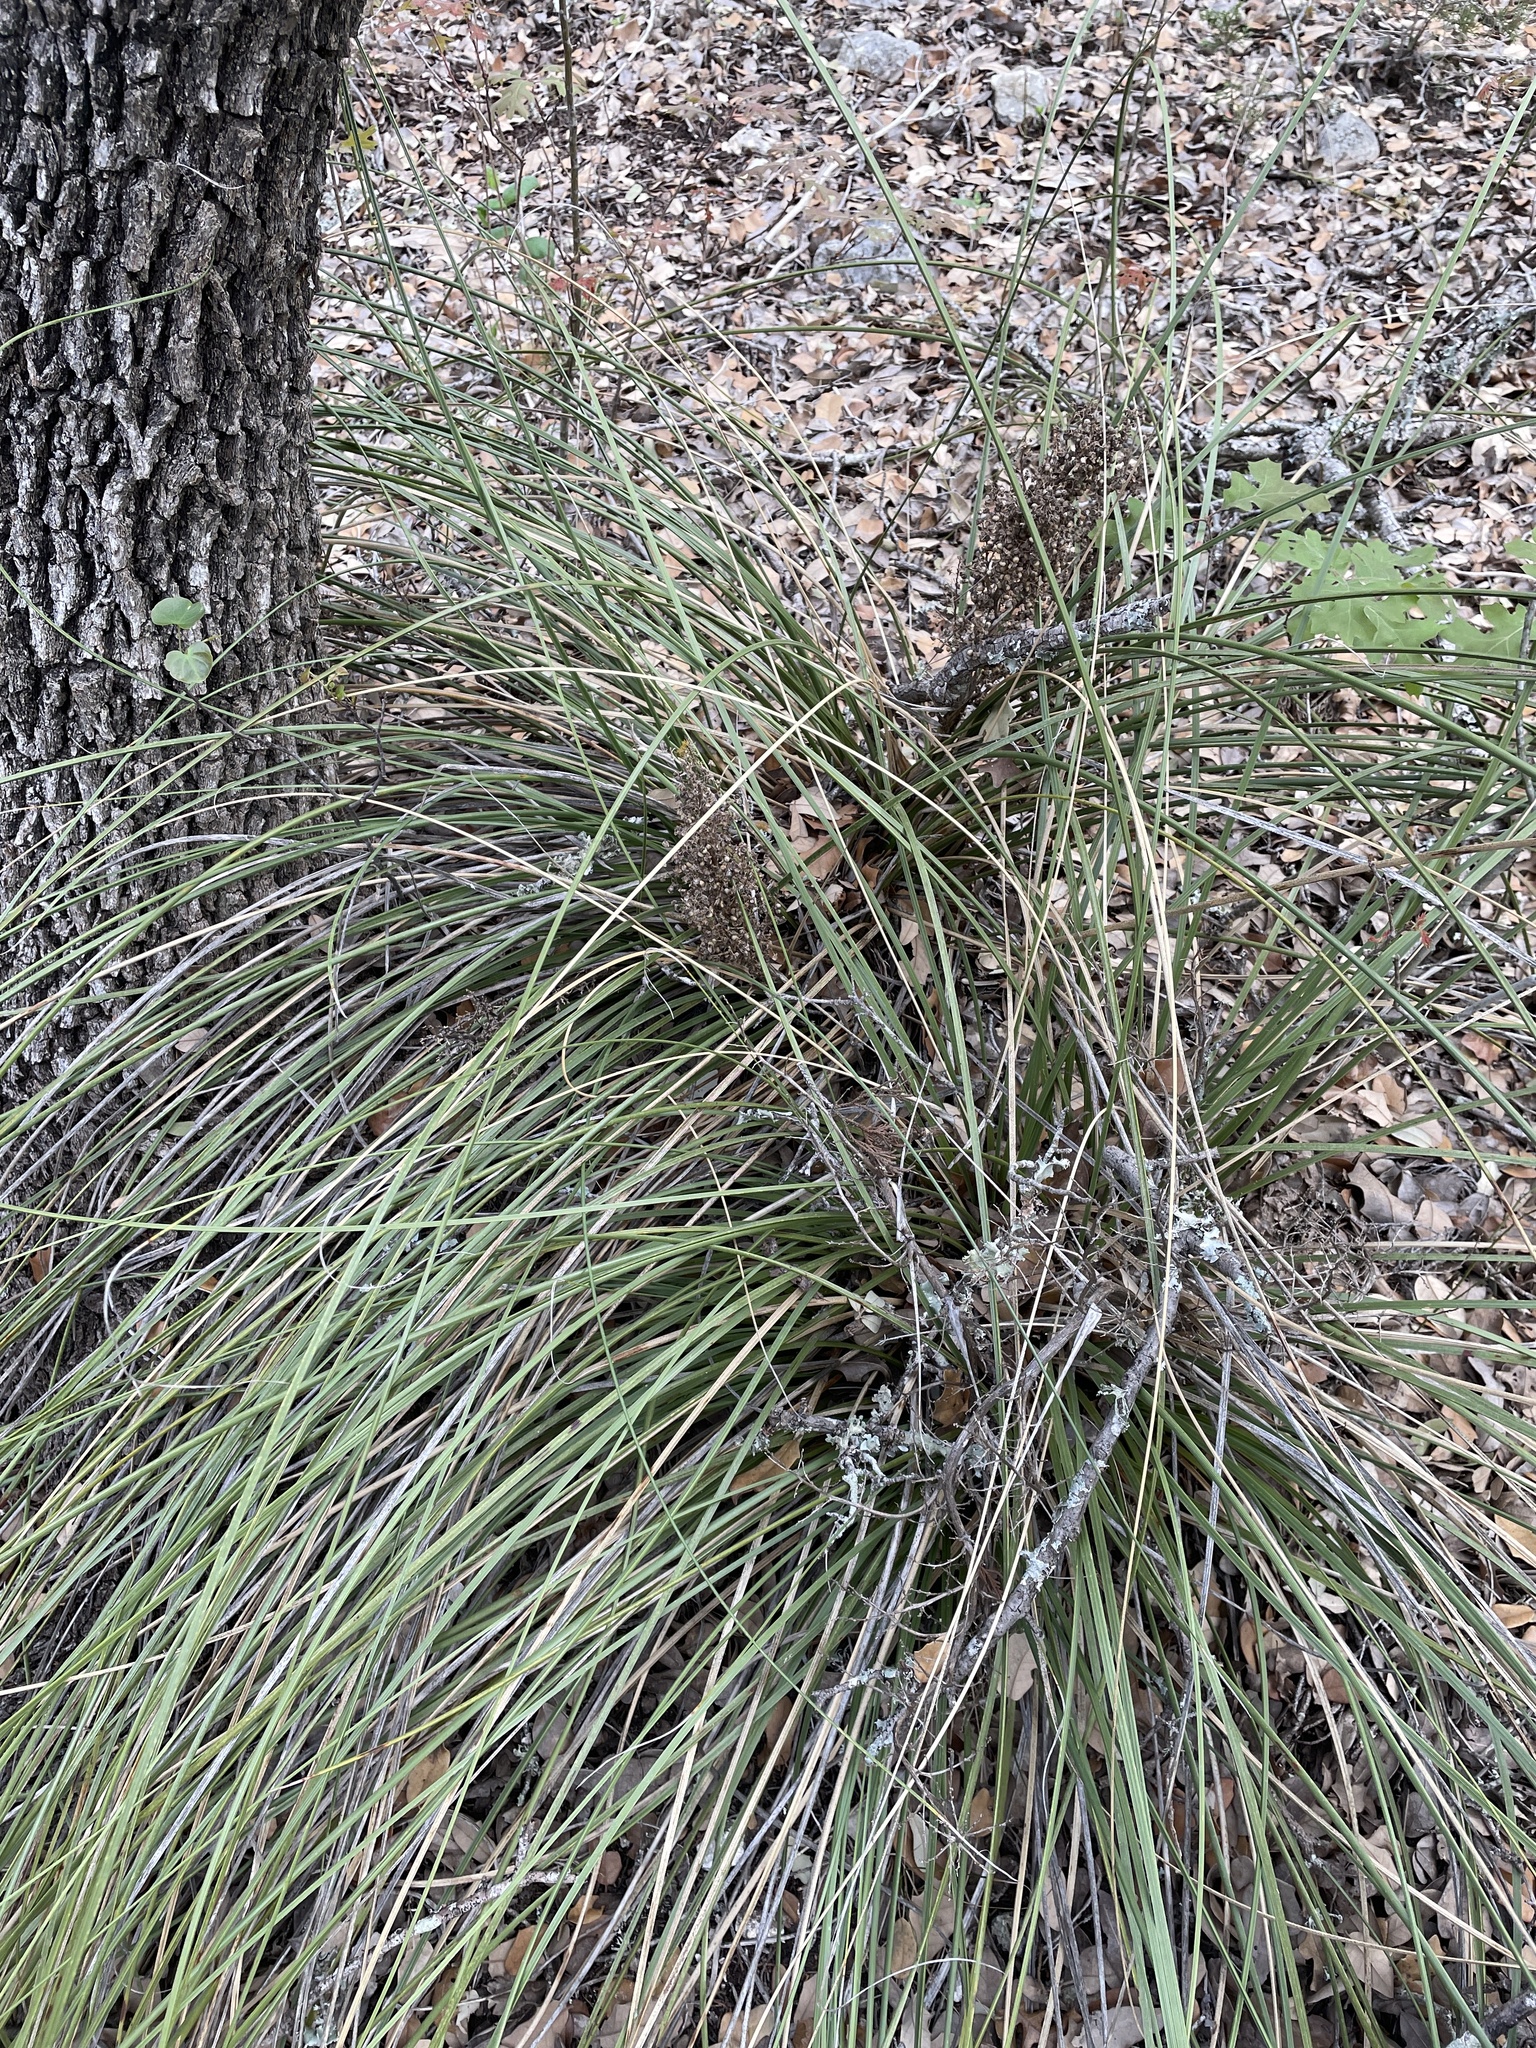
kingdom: Plantae
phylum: Tracheophyta
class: Liliopsida
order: Asparagales
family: Asparagaceae
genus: Nolina
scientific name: Nolina texana
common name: Texas sacahuiste
